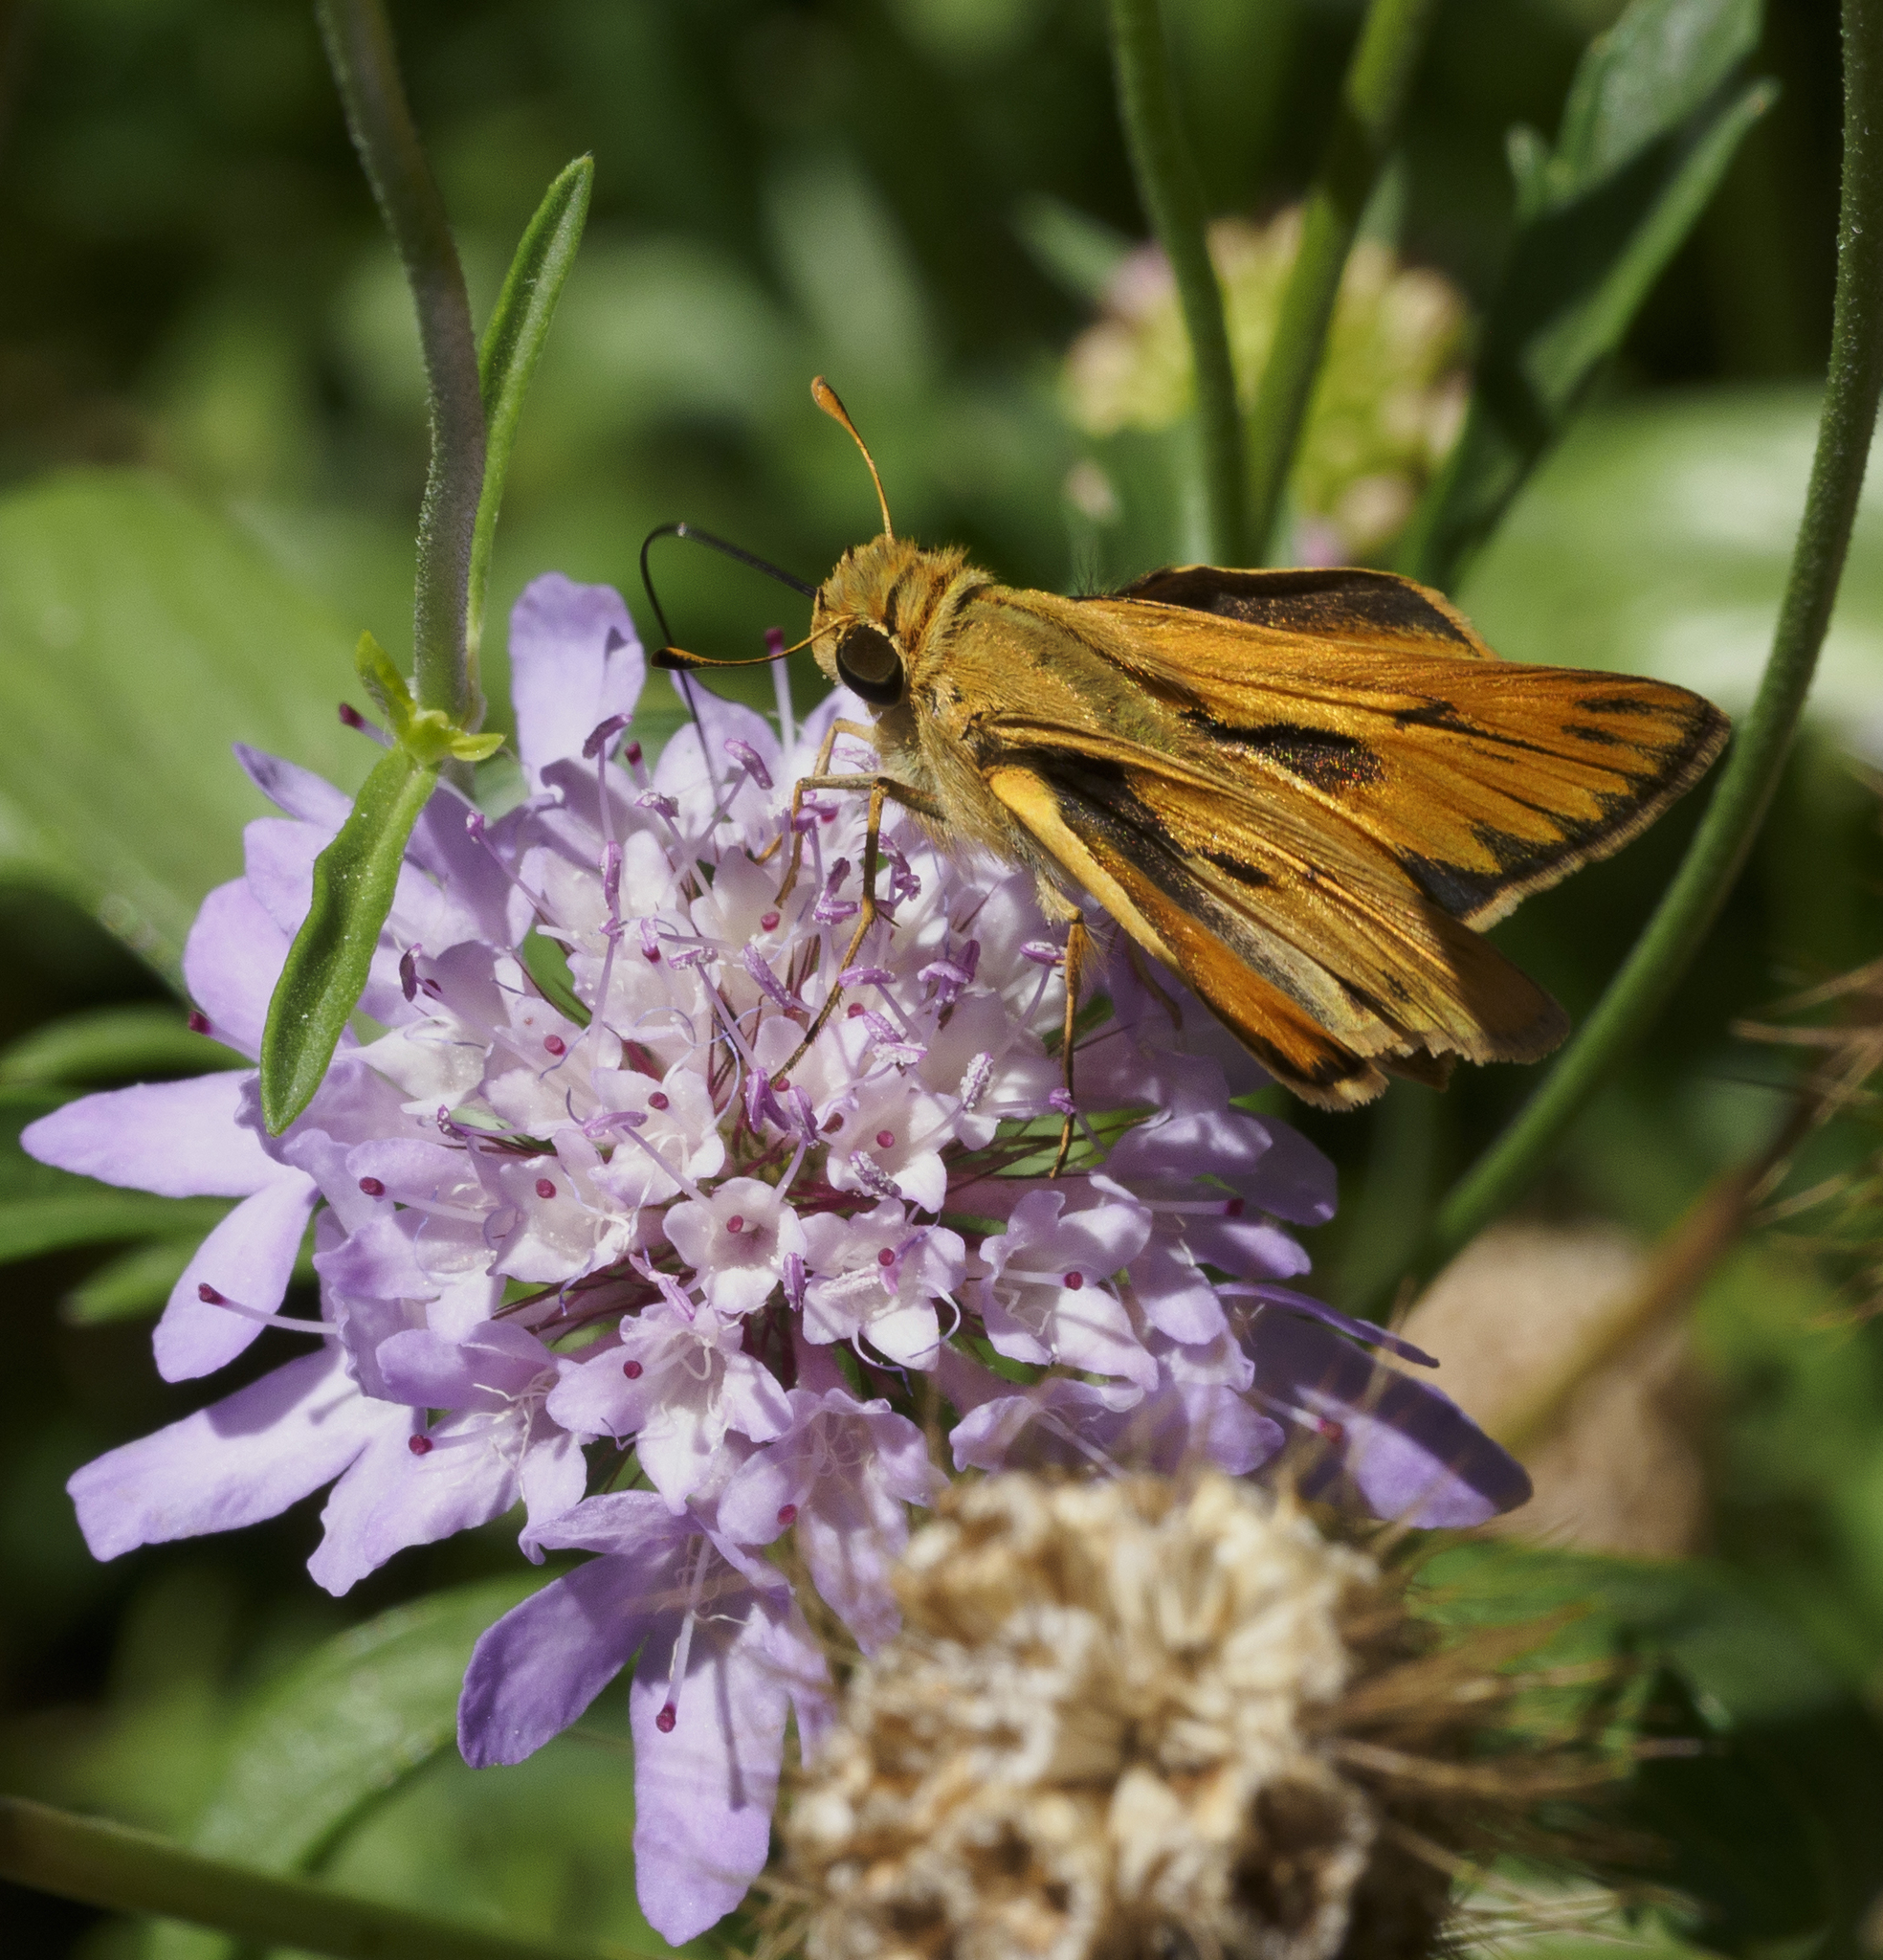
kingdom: Animalia
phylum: Arthropoda
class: Insecta
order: Lepidoptera
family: Hesperiidae
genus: Hylephila
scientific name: Hylephila phyleus
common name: Fiery skipper
